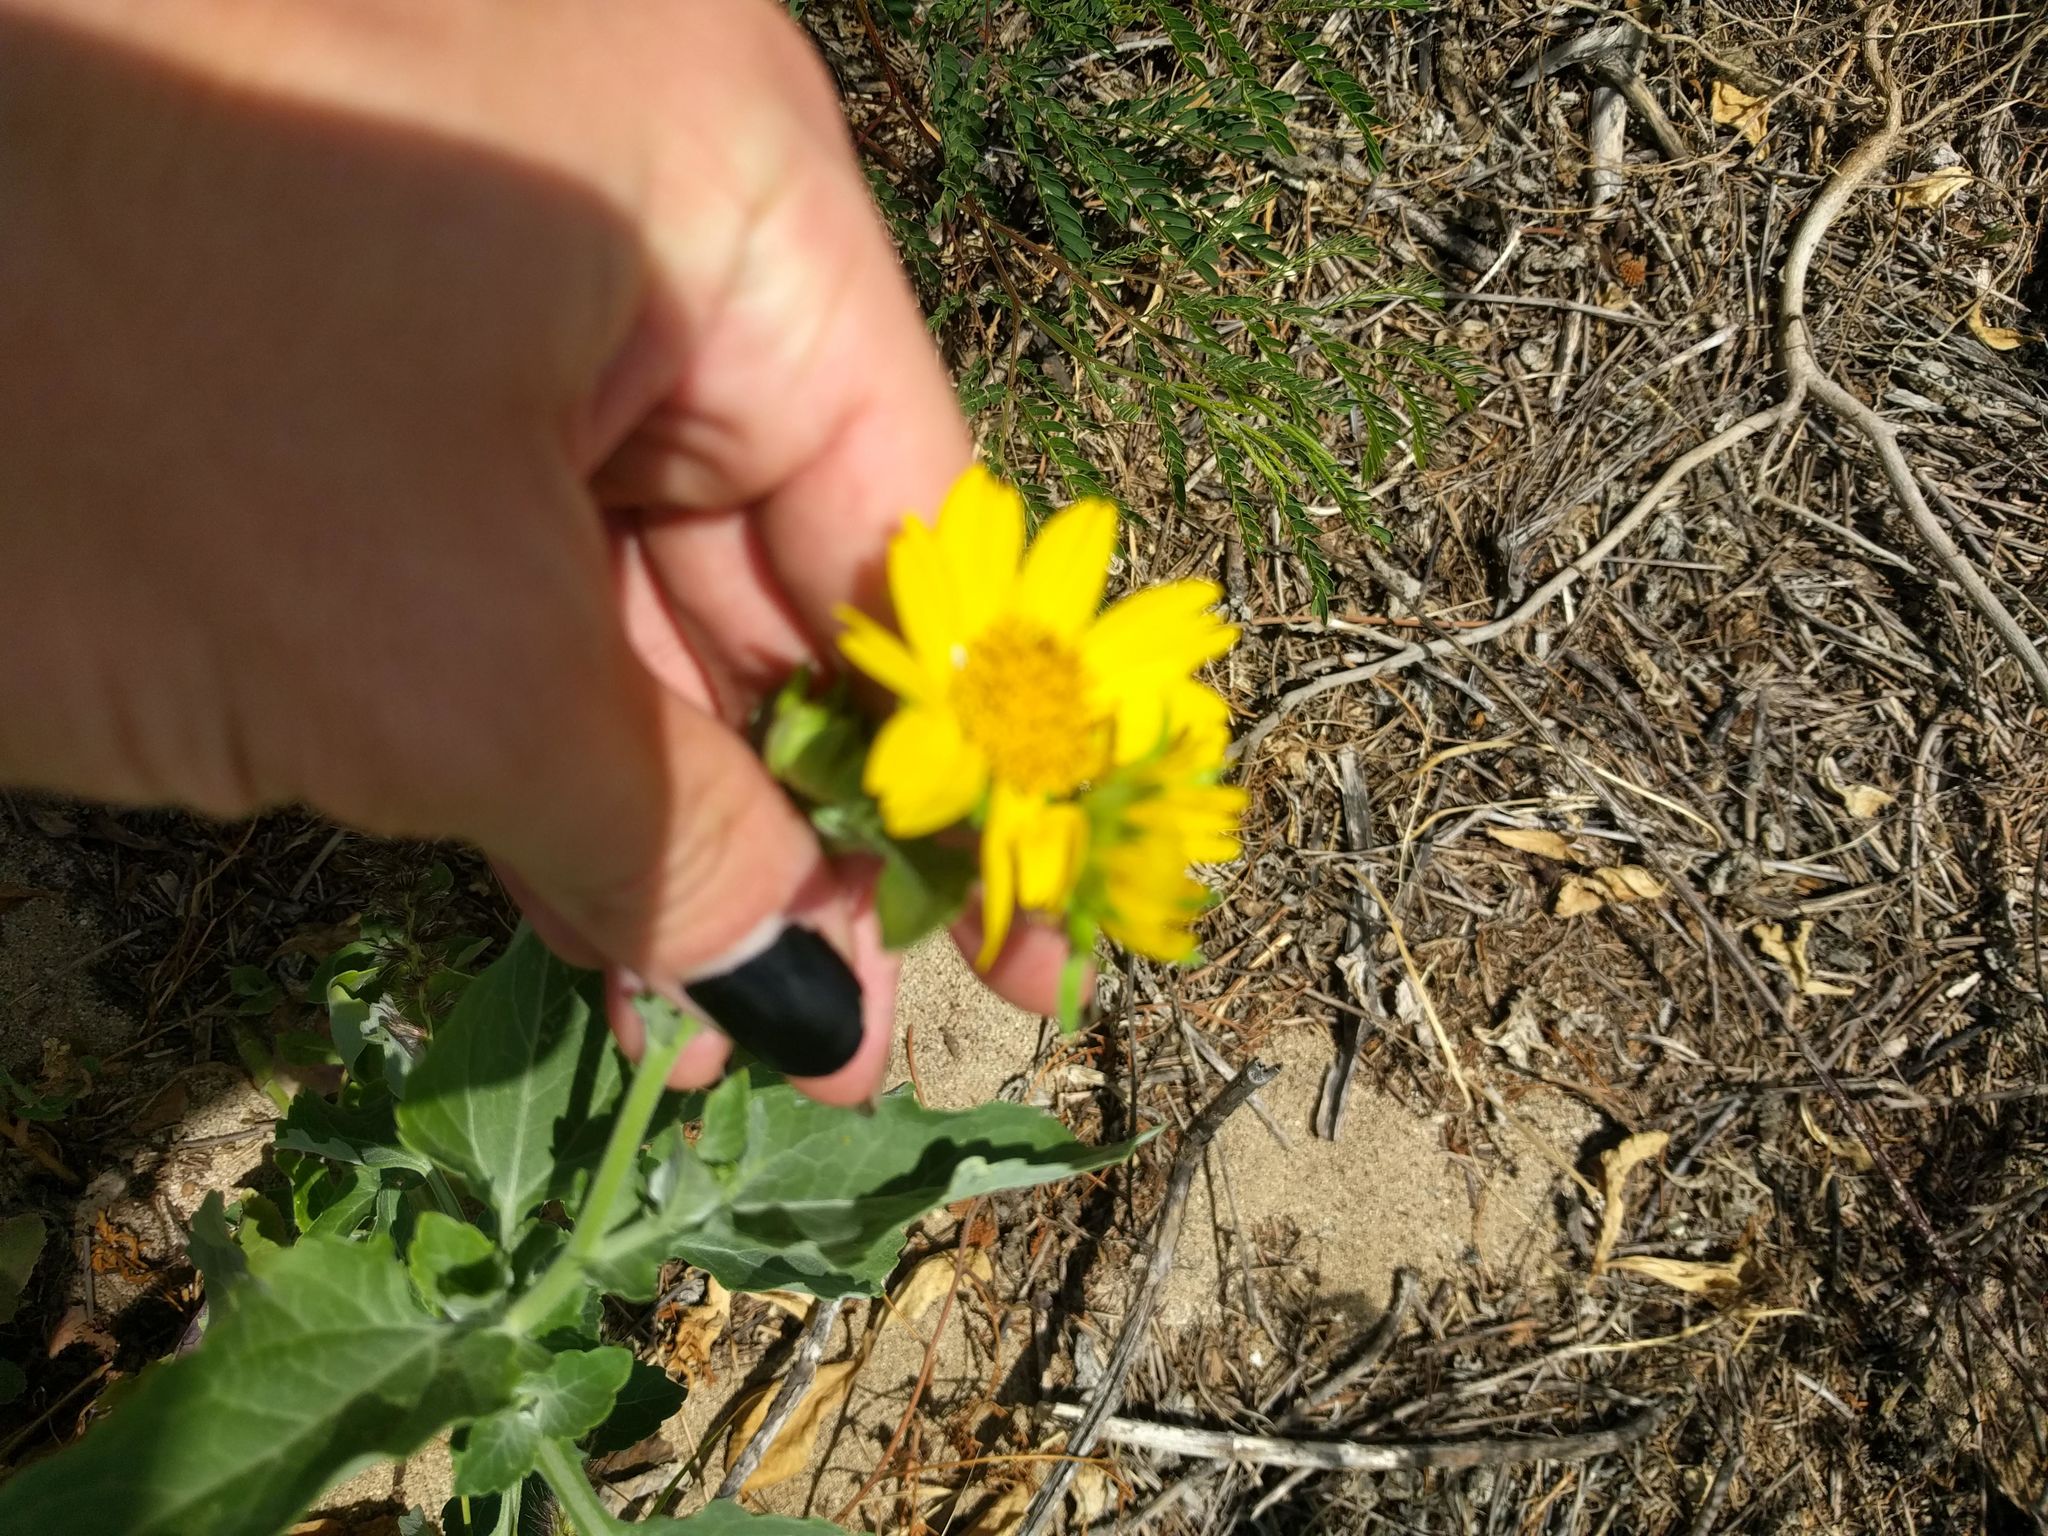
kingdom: Plantae
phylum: Tracheophyta
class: Magnoliopsida
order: Asterales
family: Asteraceae
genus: Verbesina
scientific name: Verbesina encelioides
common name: Golden crownbeard
